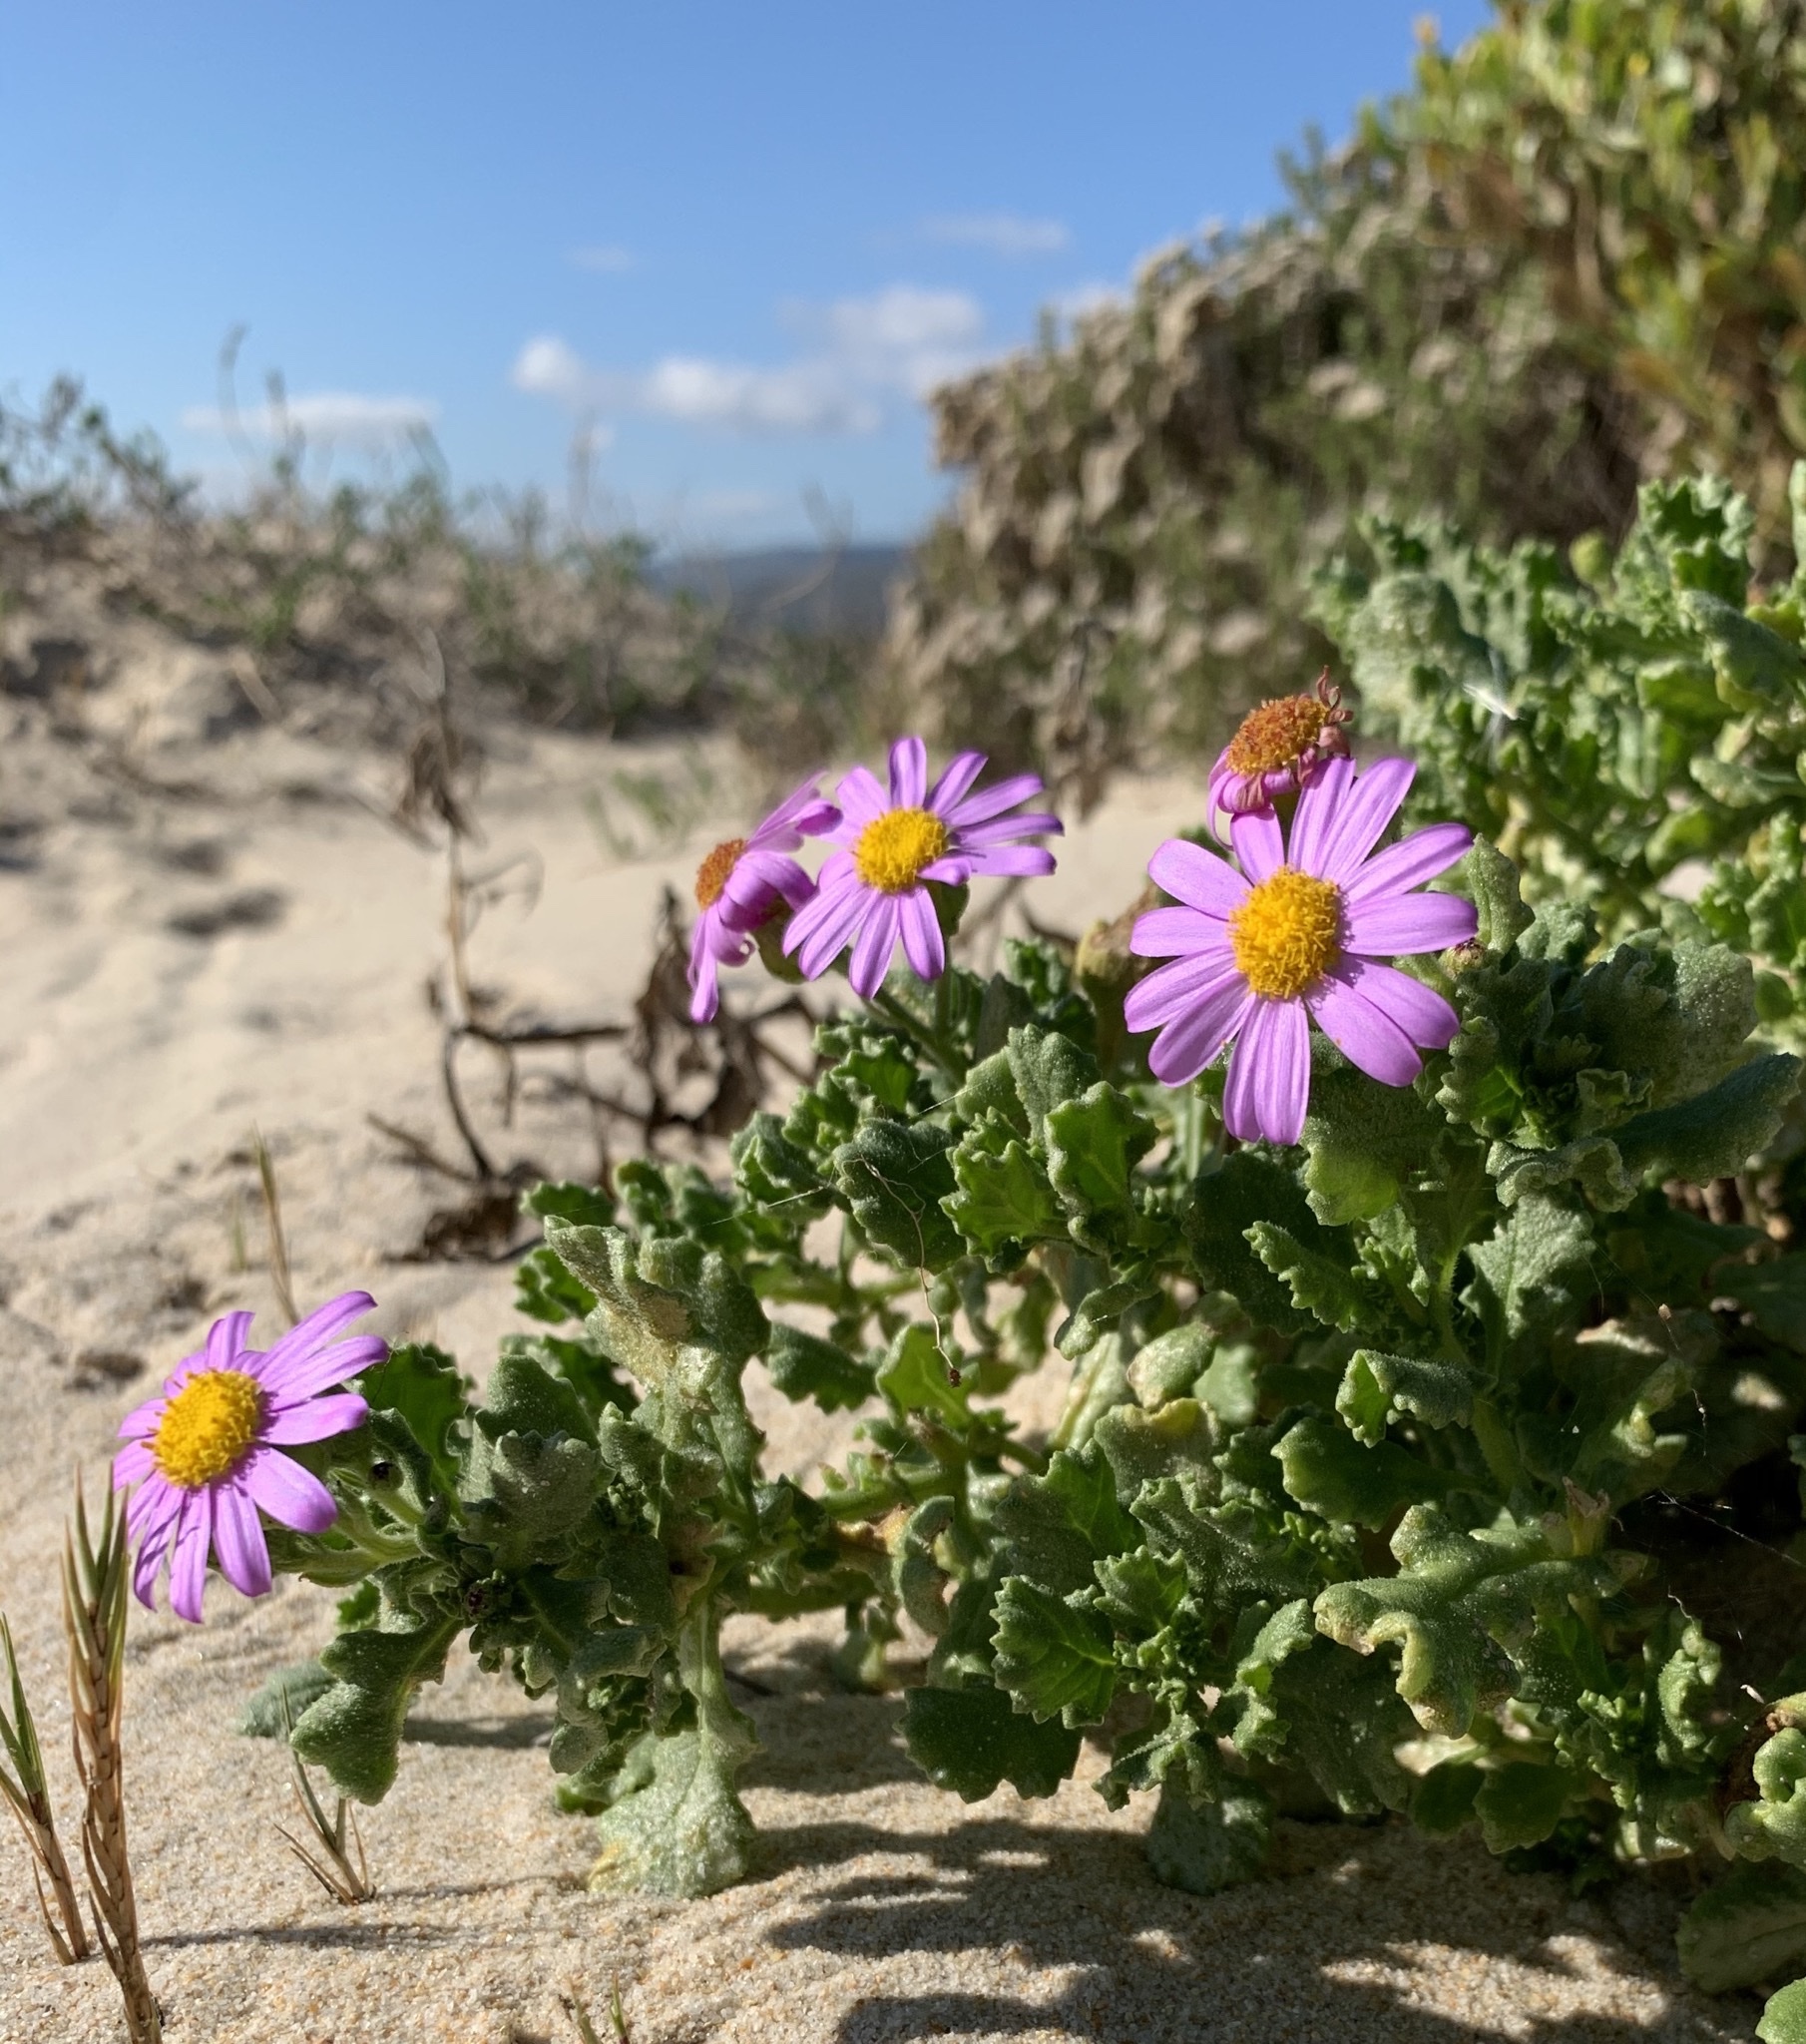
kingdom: Plantae
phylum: Tracheophyta
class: Magnoliopsida
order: Asterales
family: Asteraceae
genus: Senecio
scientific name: Senecio elegans
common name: Purple groundsel
